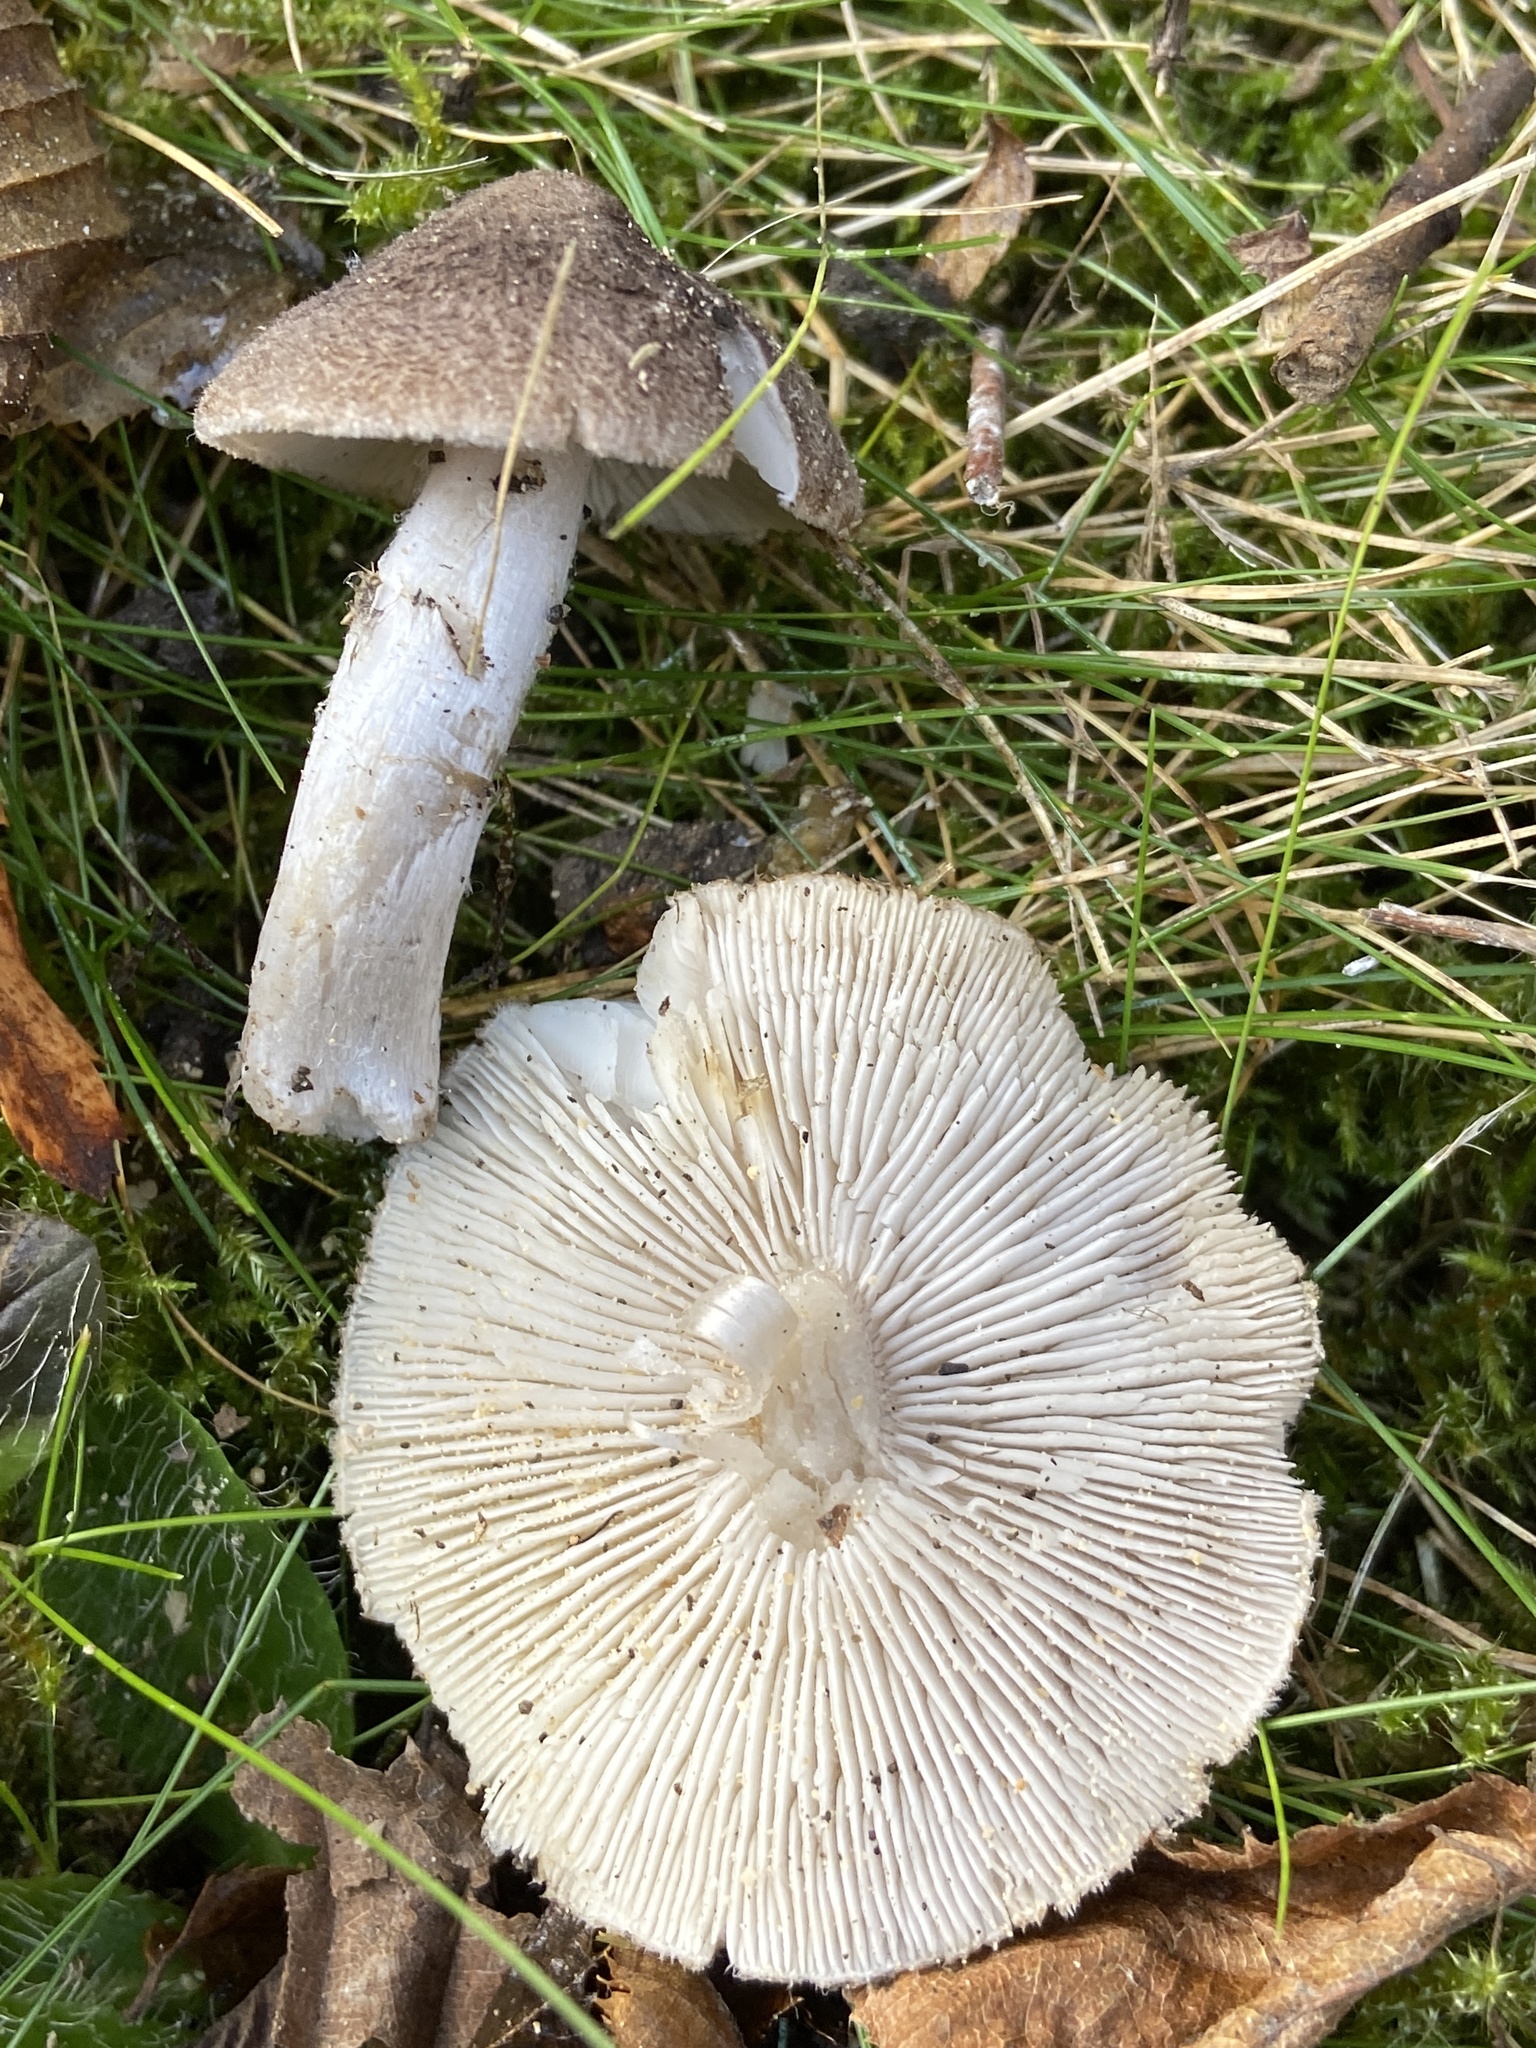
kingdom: Fungi
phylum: Basidiomycota
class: Agaricomycetes
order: Agaricales
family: Tricholomataceae
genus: Tricholoma
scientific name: Tricholoma terreum
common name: Grey knight
